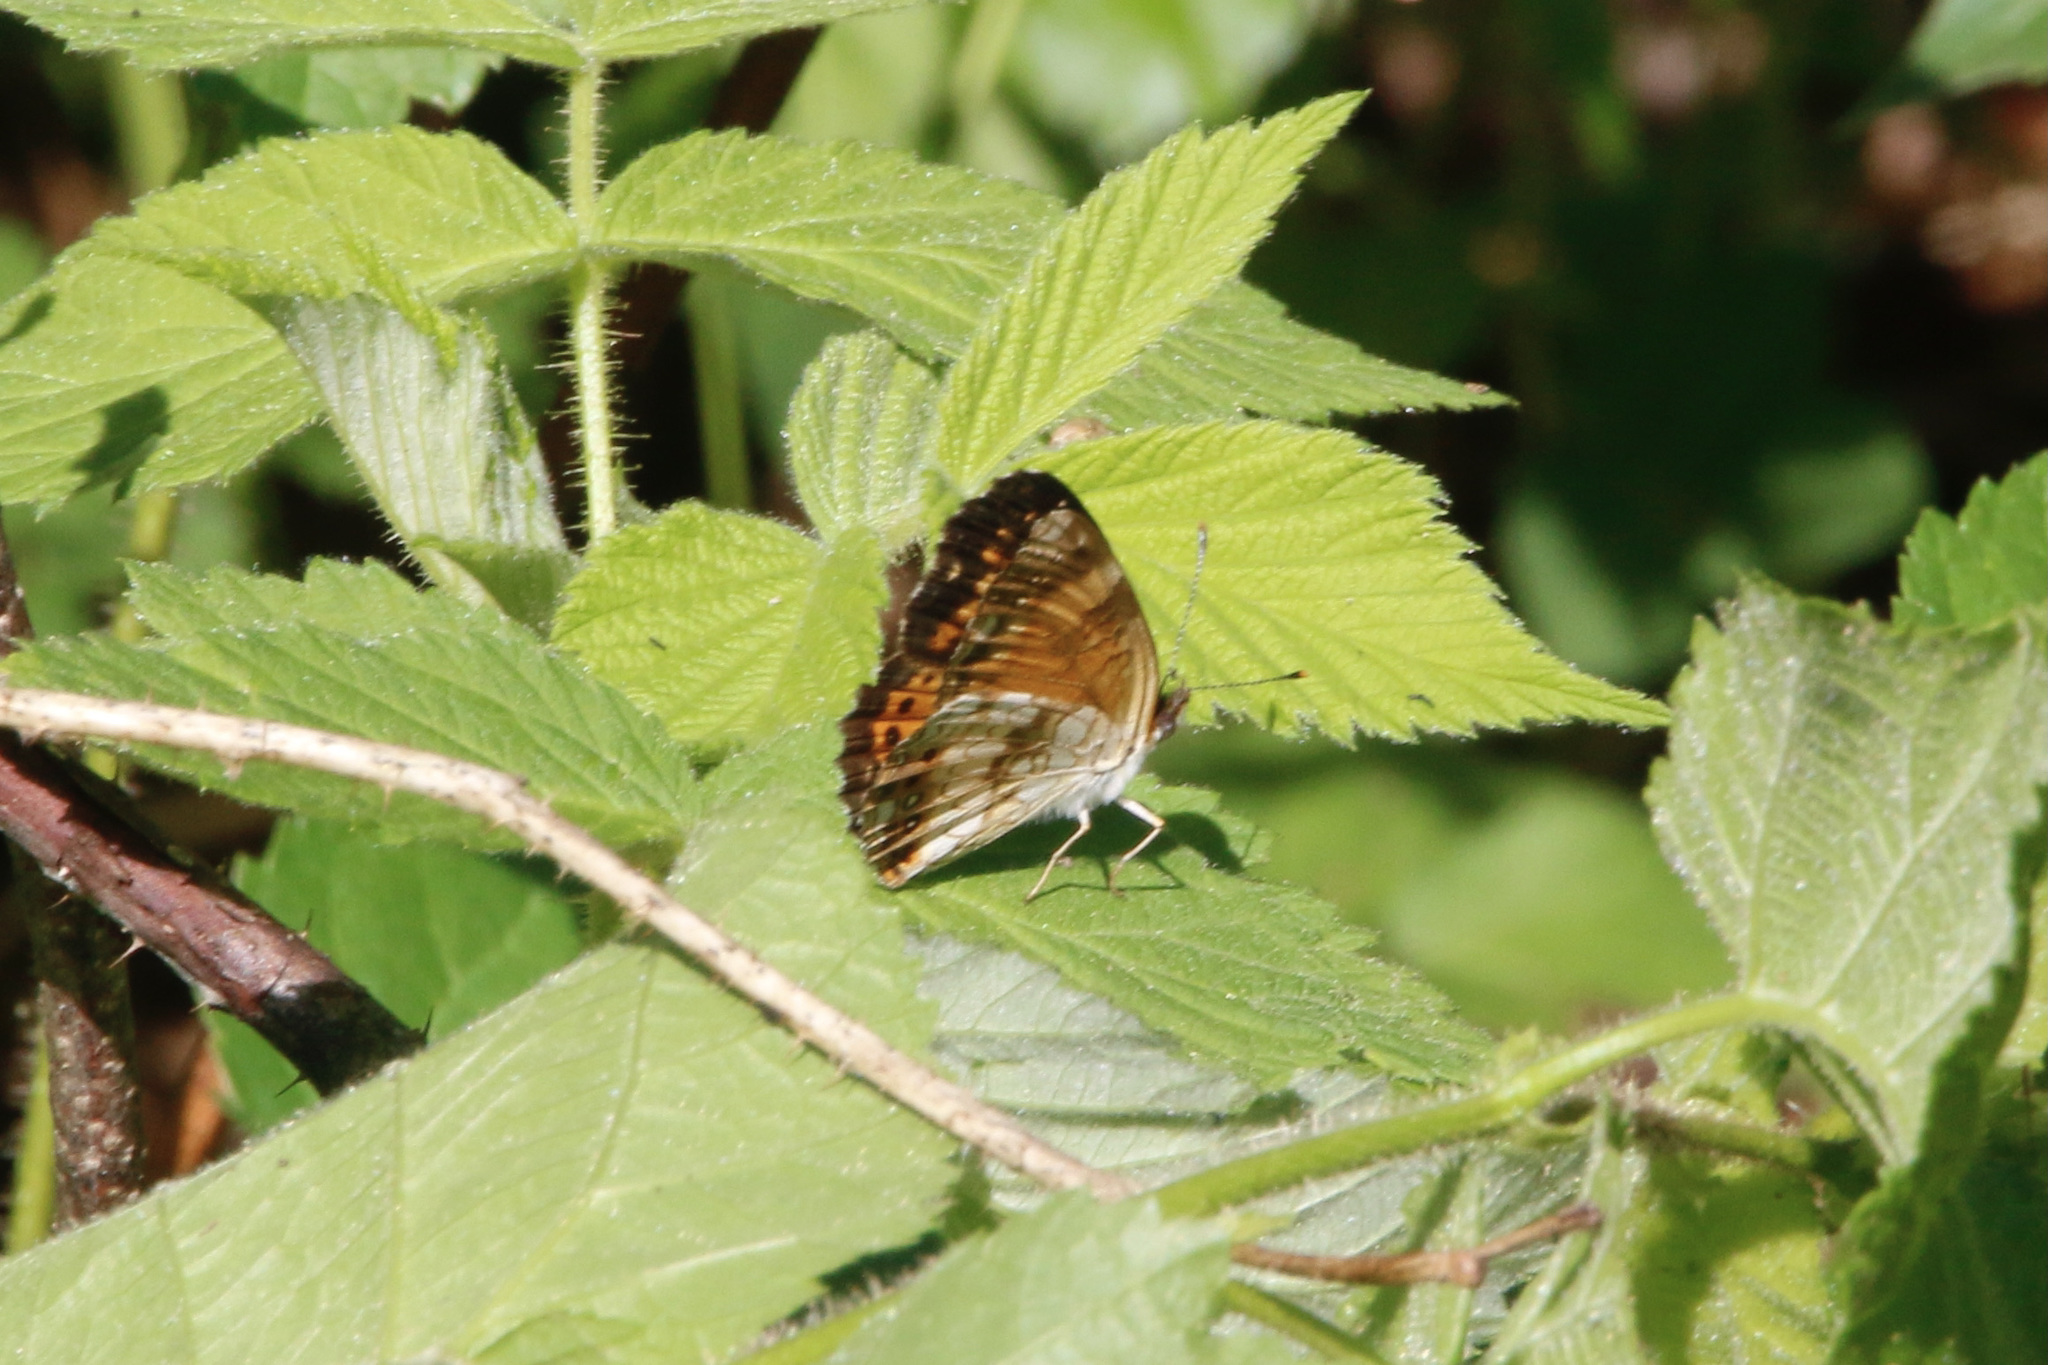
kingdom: Animalia
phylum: Arthropoda
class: Insecta
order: Lepidoptera
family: Nymphalidae
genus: Chlosyne
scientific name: Chlosyne nycteis
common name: Silvery checkerspot
